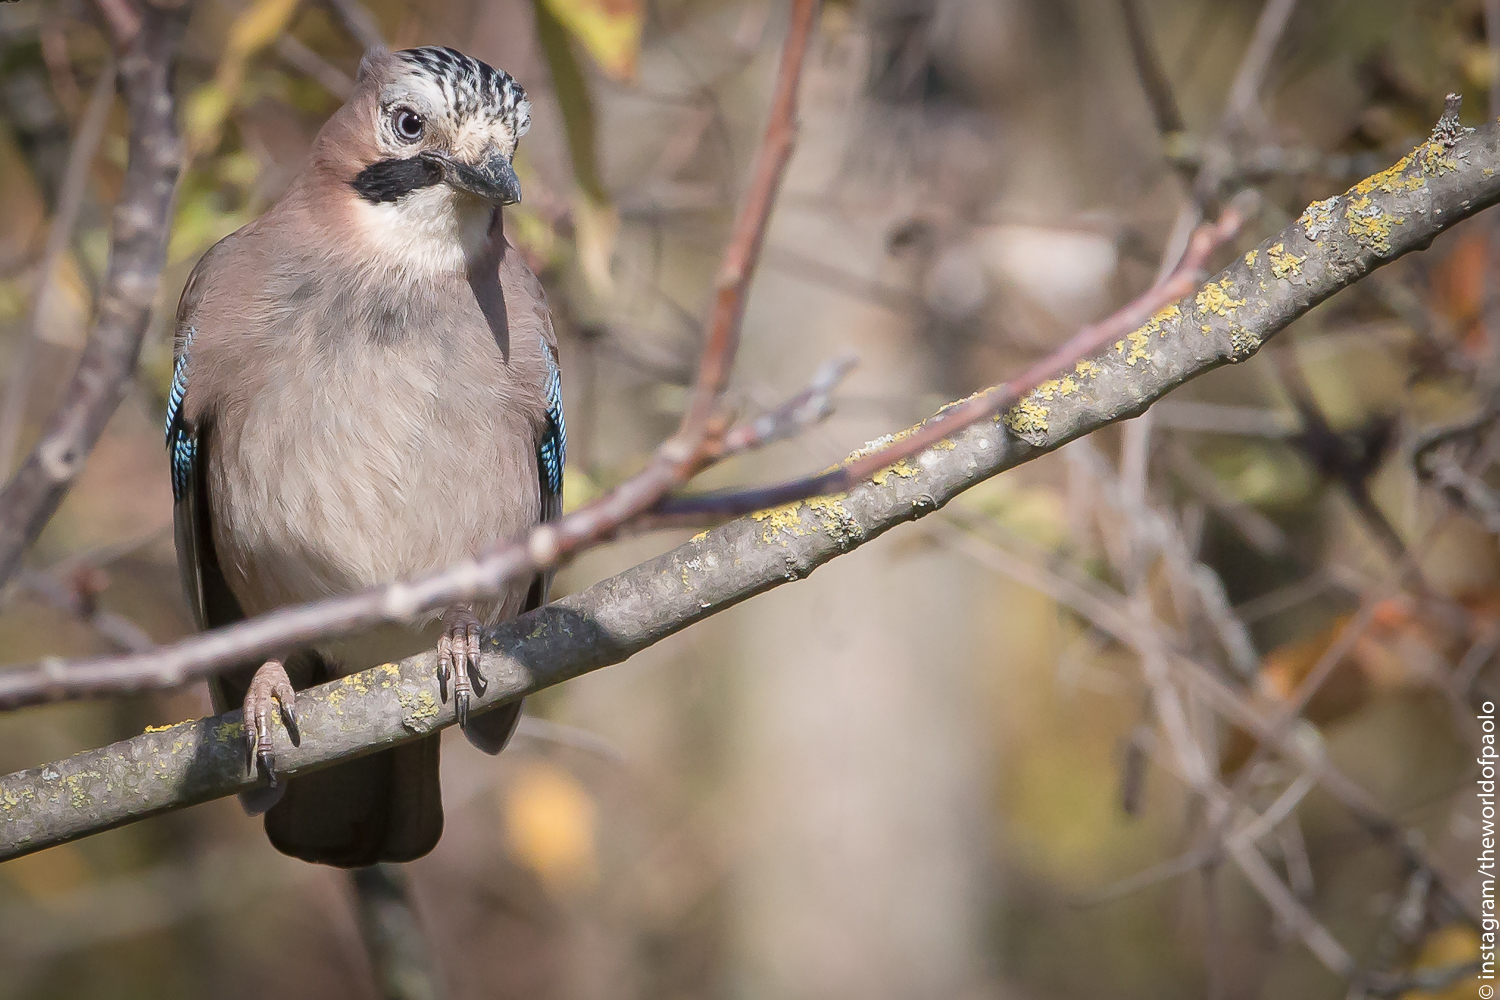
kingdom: Animalia
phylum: Chordata
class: Aves
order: Passeriformes
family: Corvidae
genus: Garrulus
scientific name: Garrulus glandarius
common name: Eurasian jay
